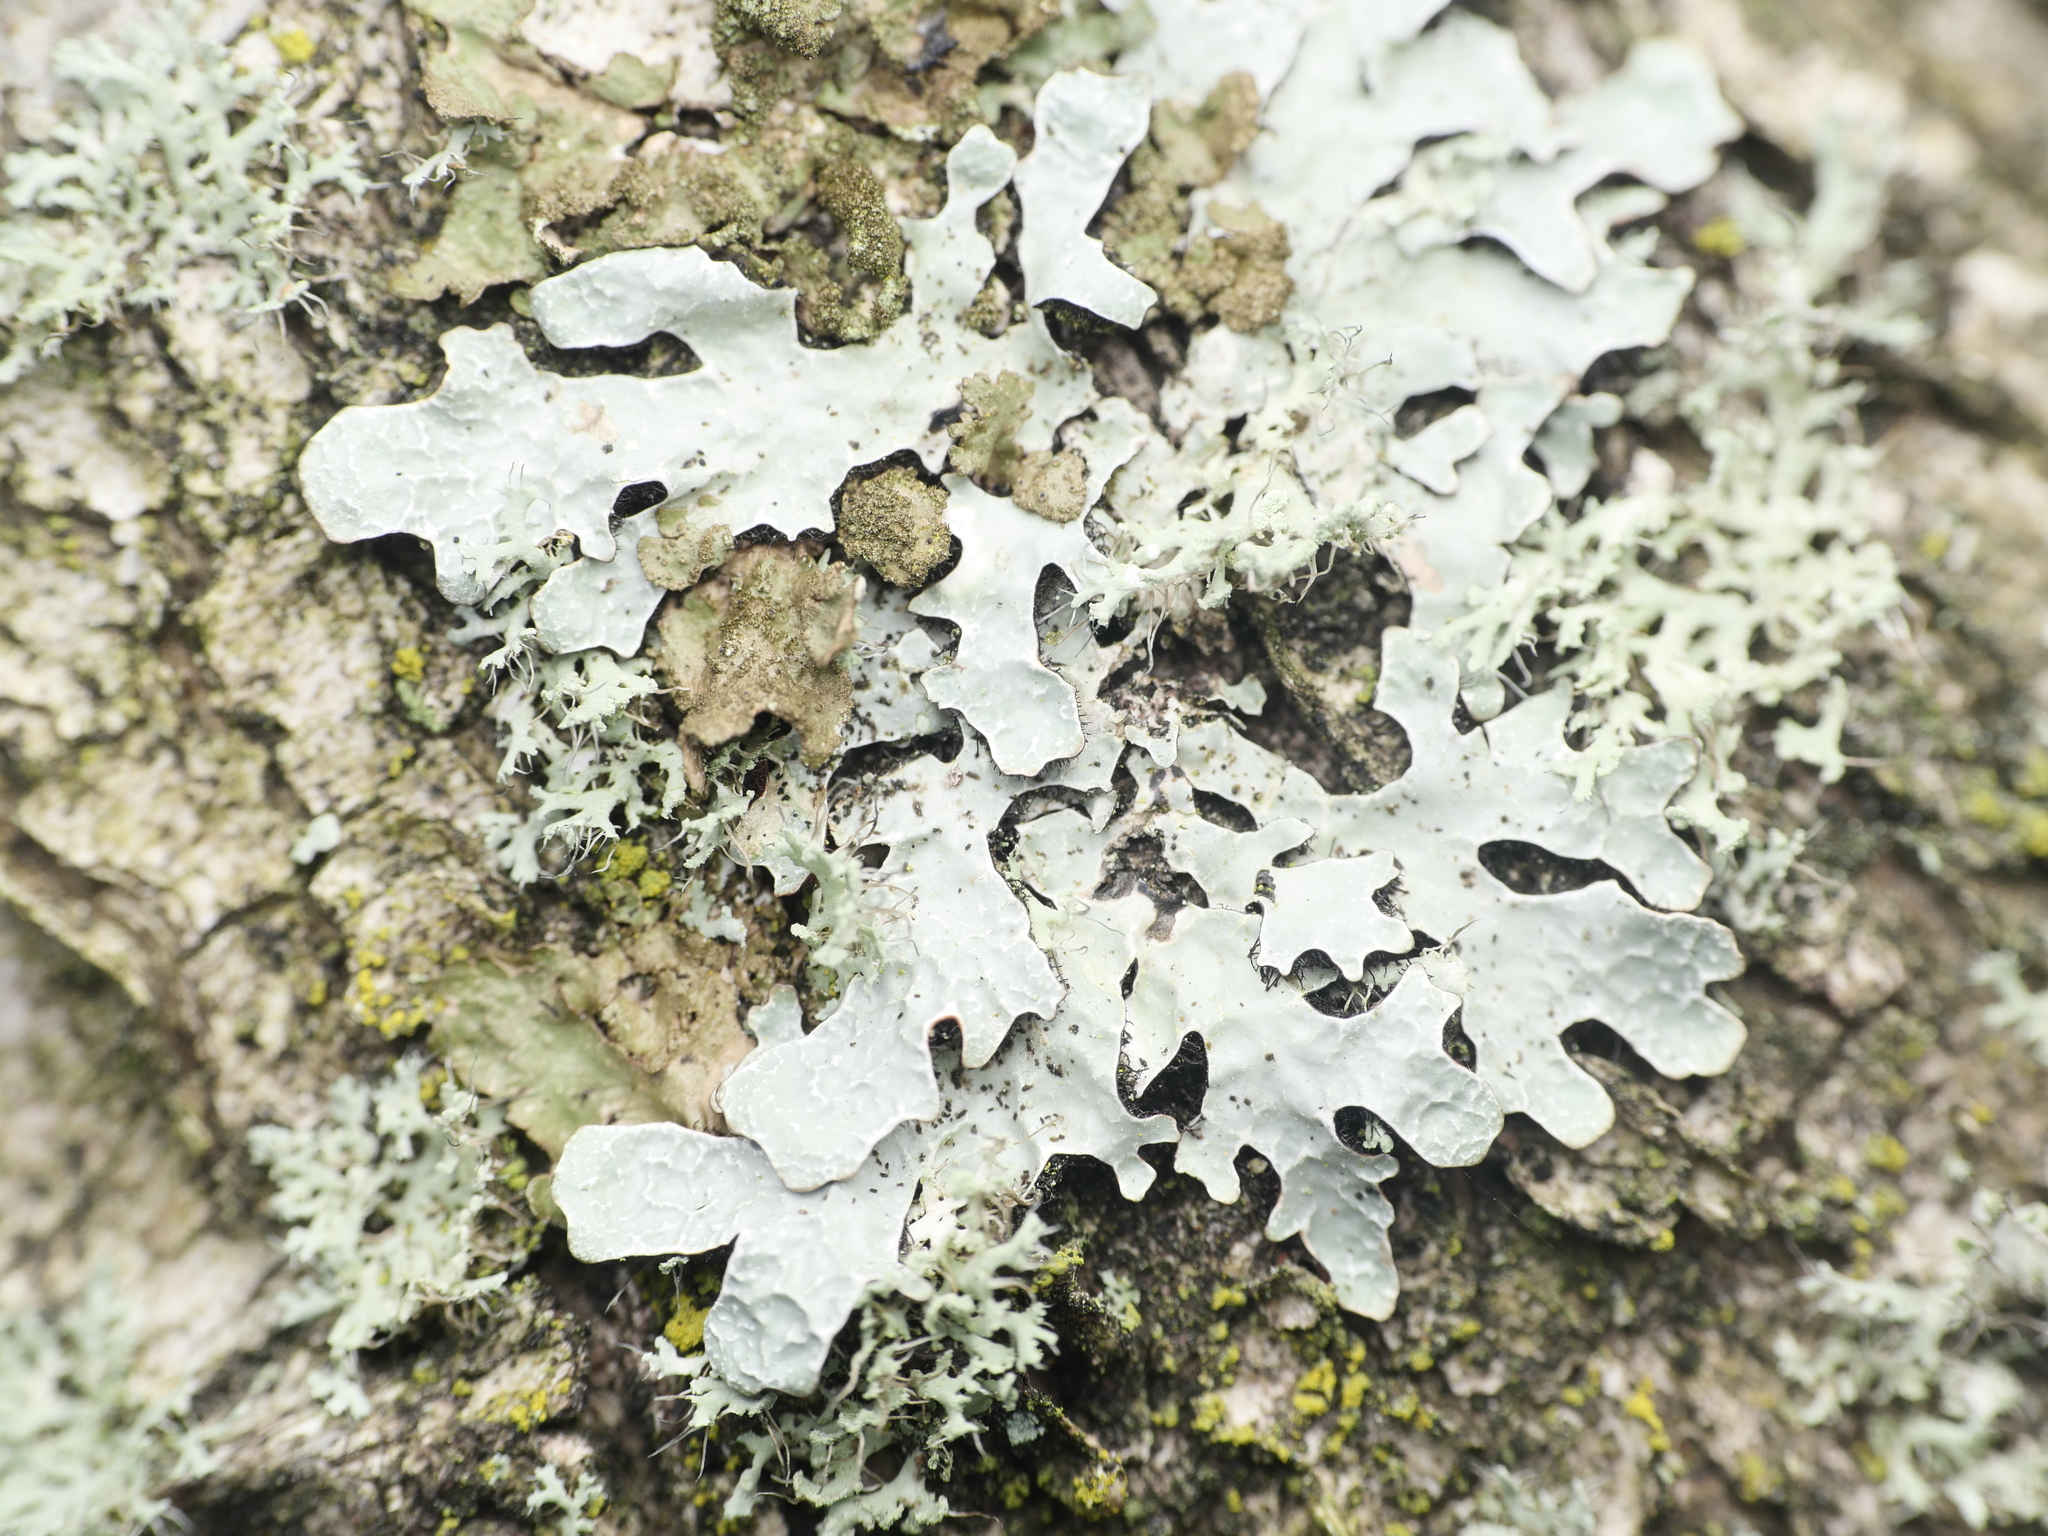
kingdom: Fungi
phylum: Ascomycota
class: Lecanoromycetes
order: Lecanorales
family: Parmeliaceae
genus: Parmelia
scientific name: Parmelia sulcata
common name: Netted shield lichen
